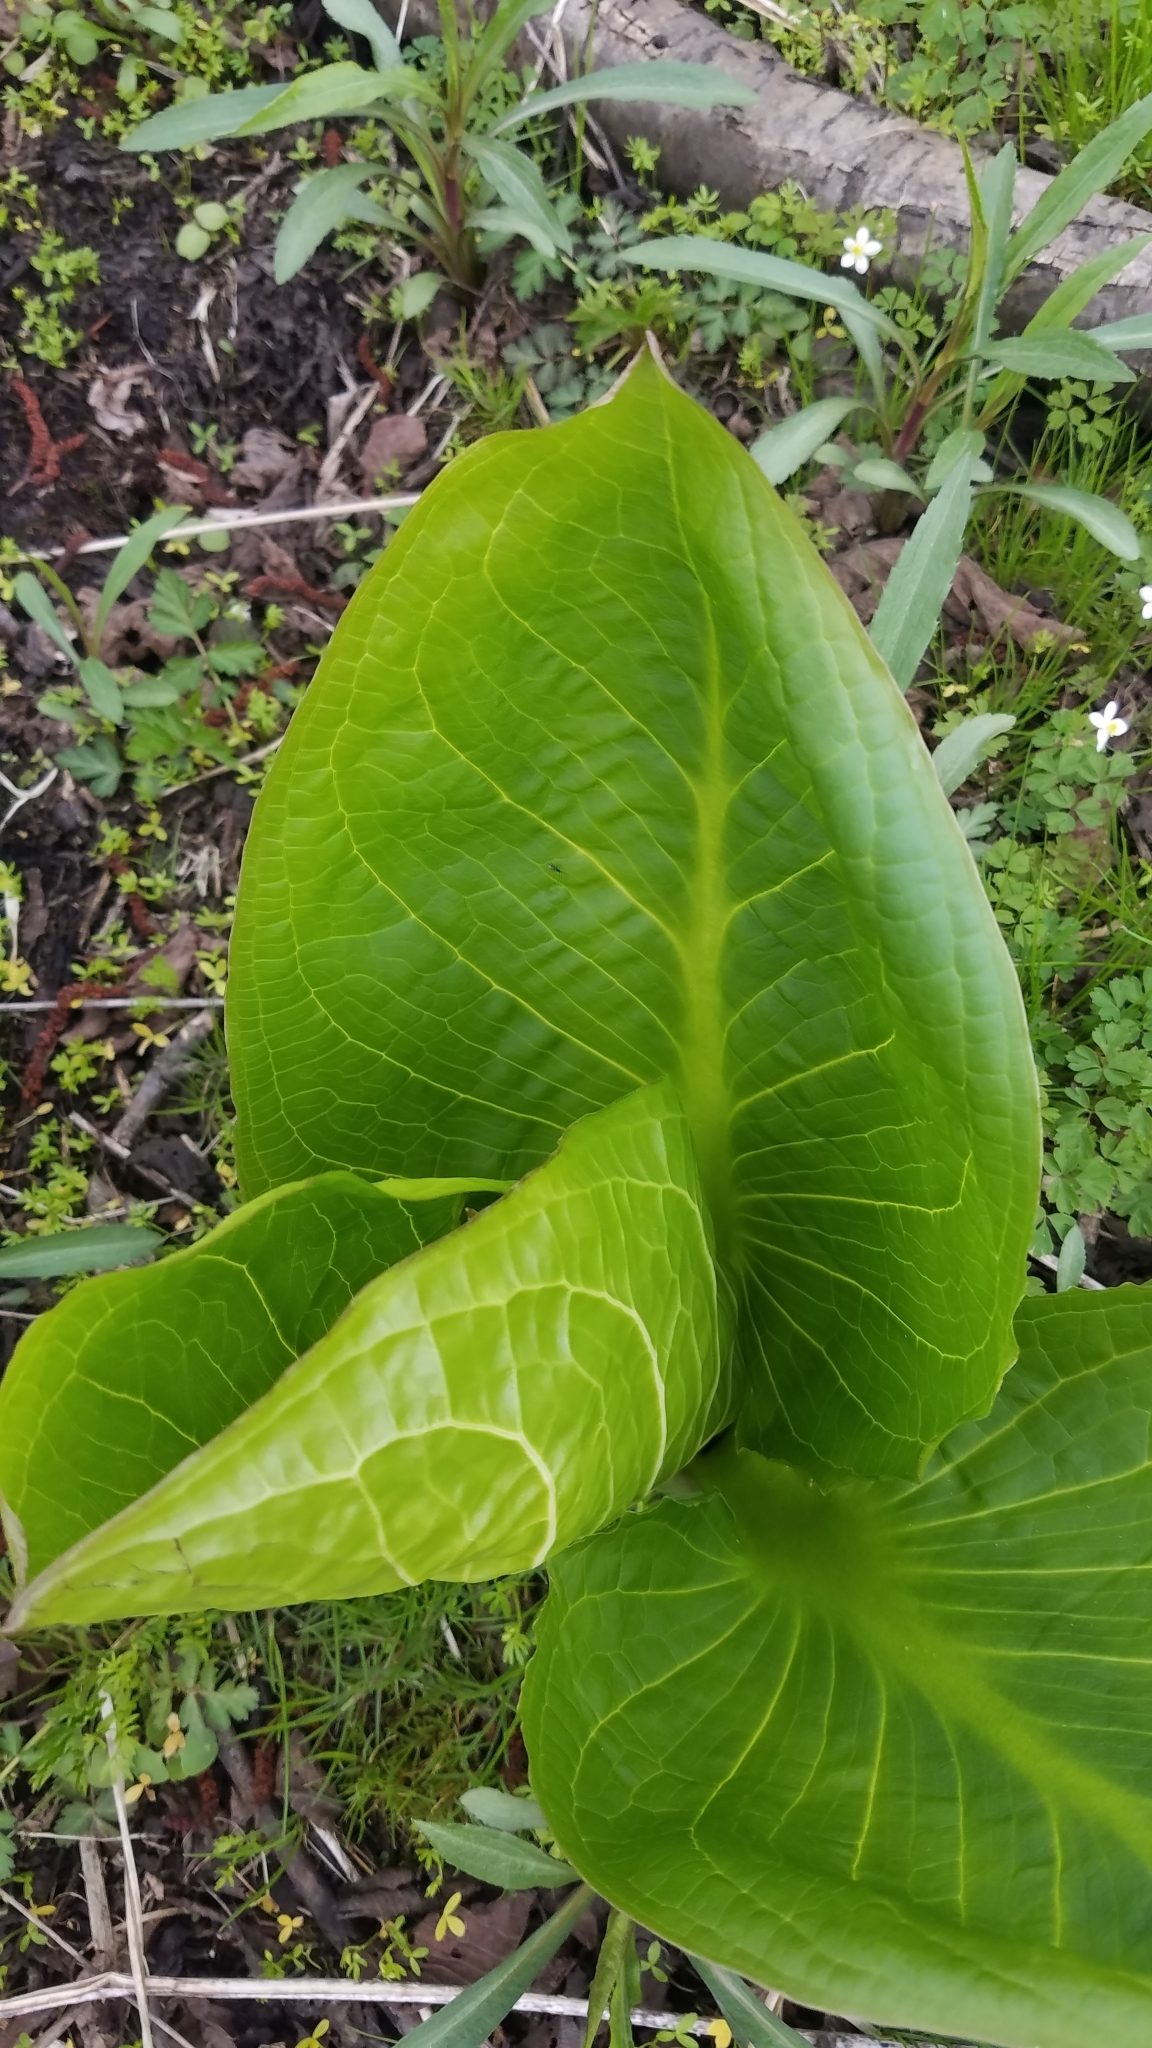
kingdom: Plantae
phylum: Tracheophyta
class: Liliopsida
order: Alismatales
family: Araceae
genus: Symplocarpus
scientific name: Symplocarpus foetidus
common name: Eastern skunk cabbage
